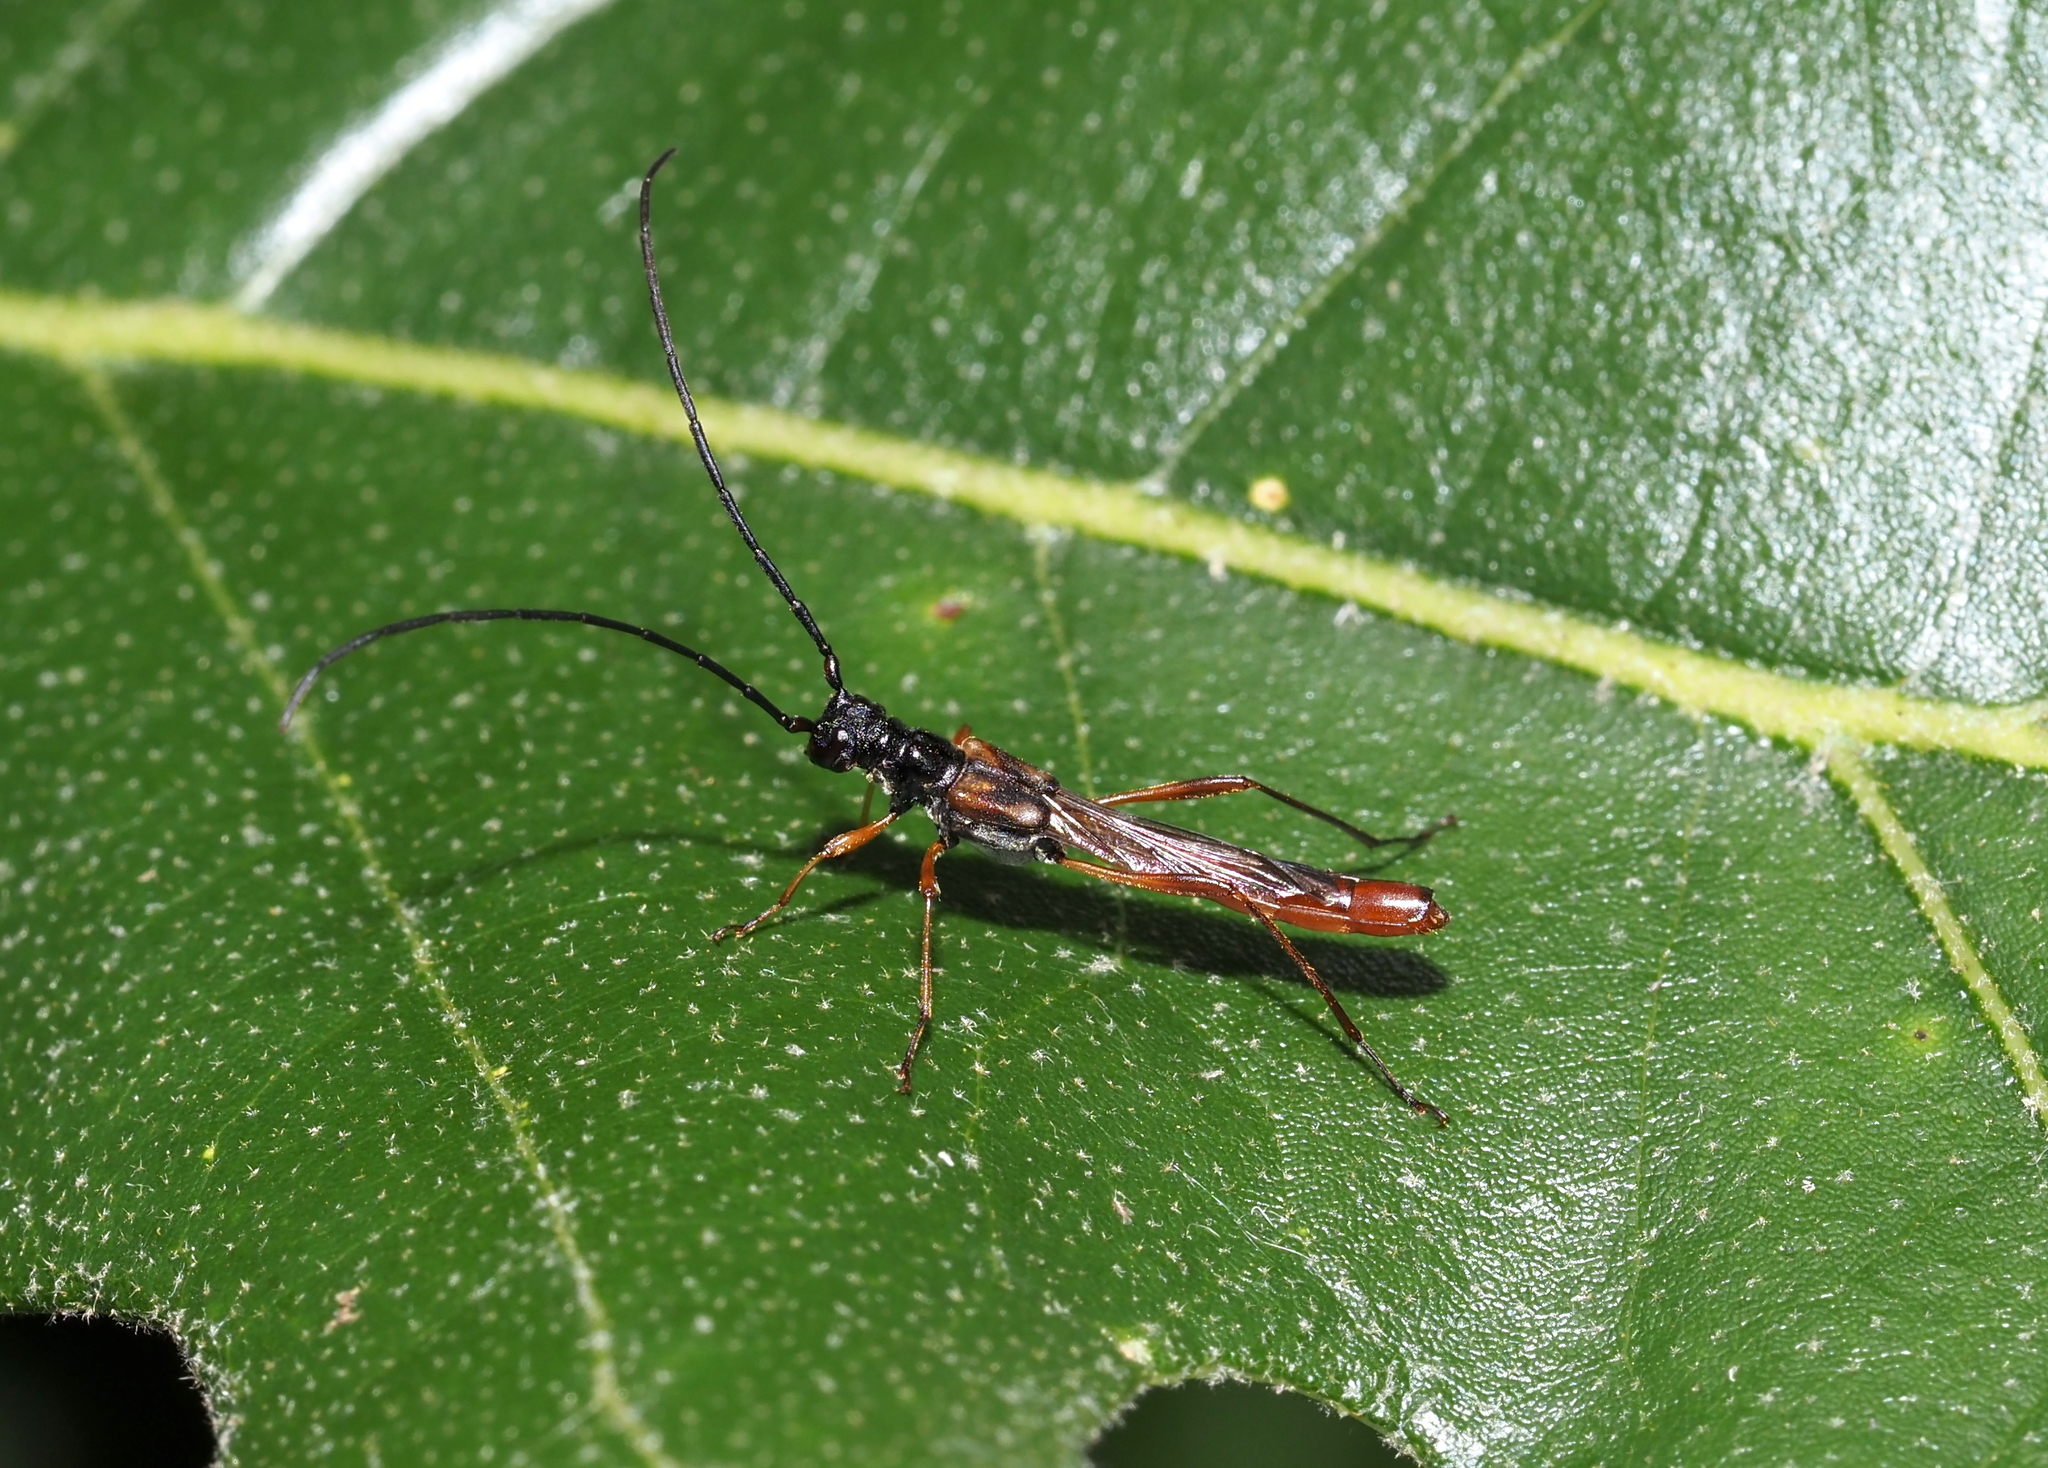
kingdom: Animalia
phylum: Arthropoda
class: Insecta
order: Coleoptera
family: Cerambycidae
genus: Necydalis
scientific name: Necydalis mellita
